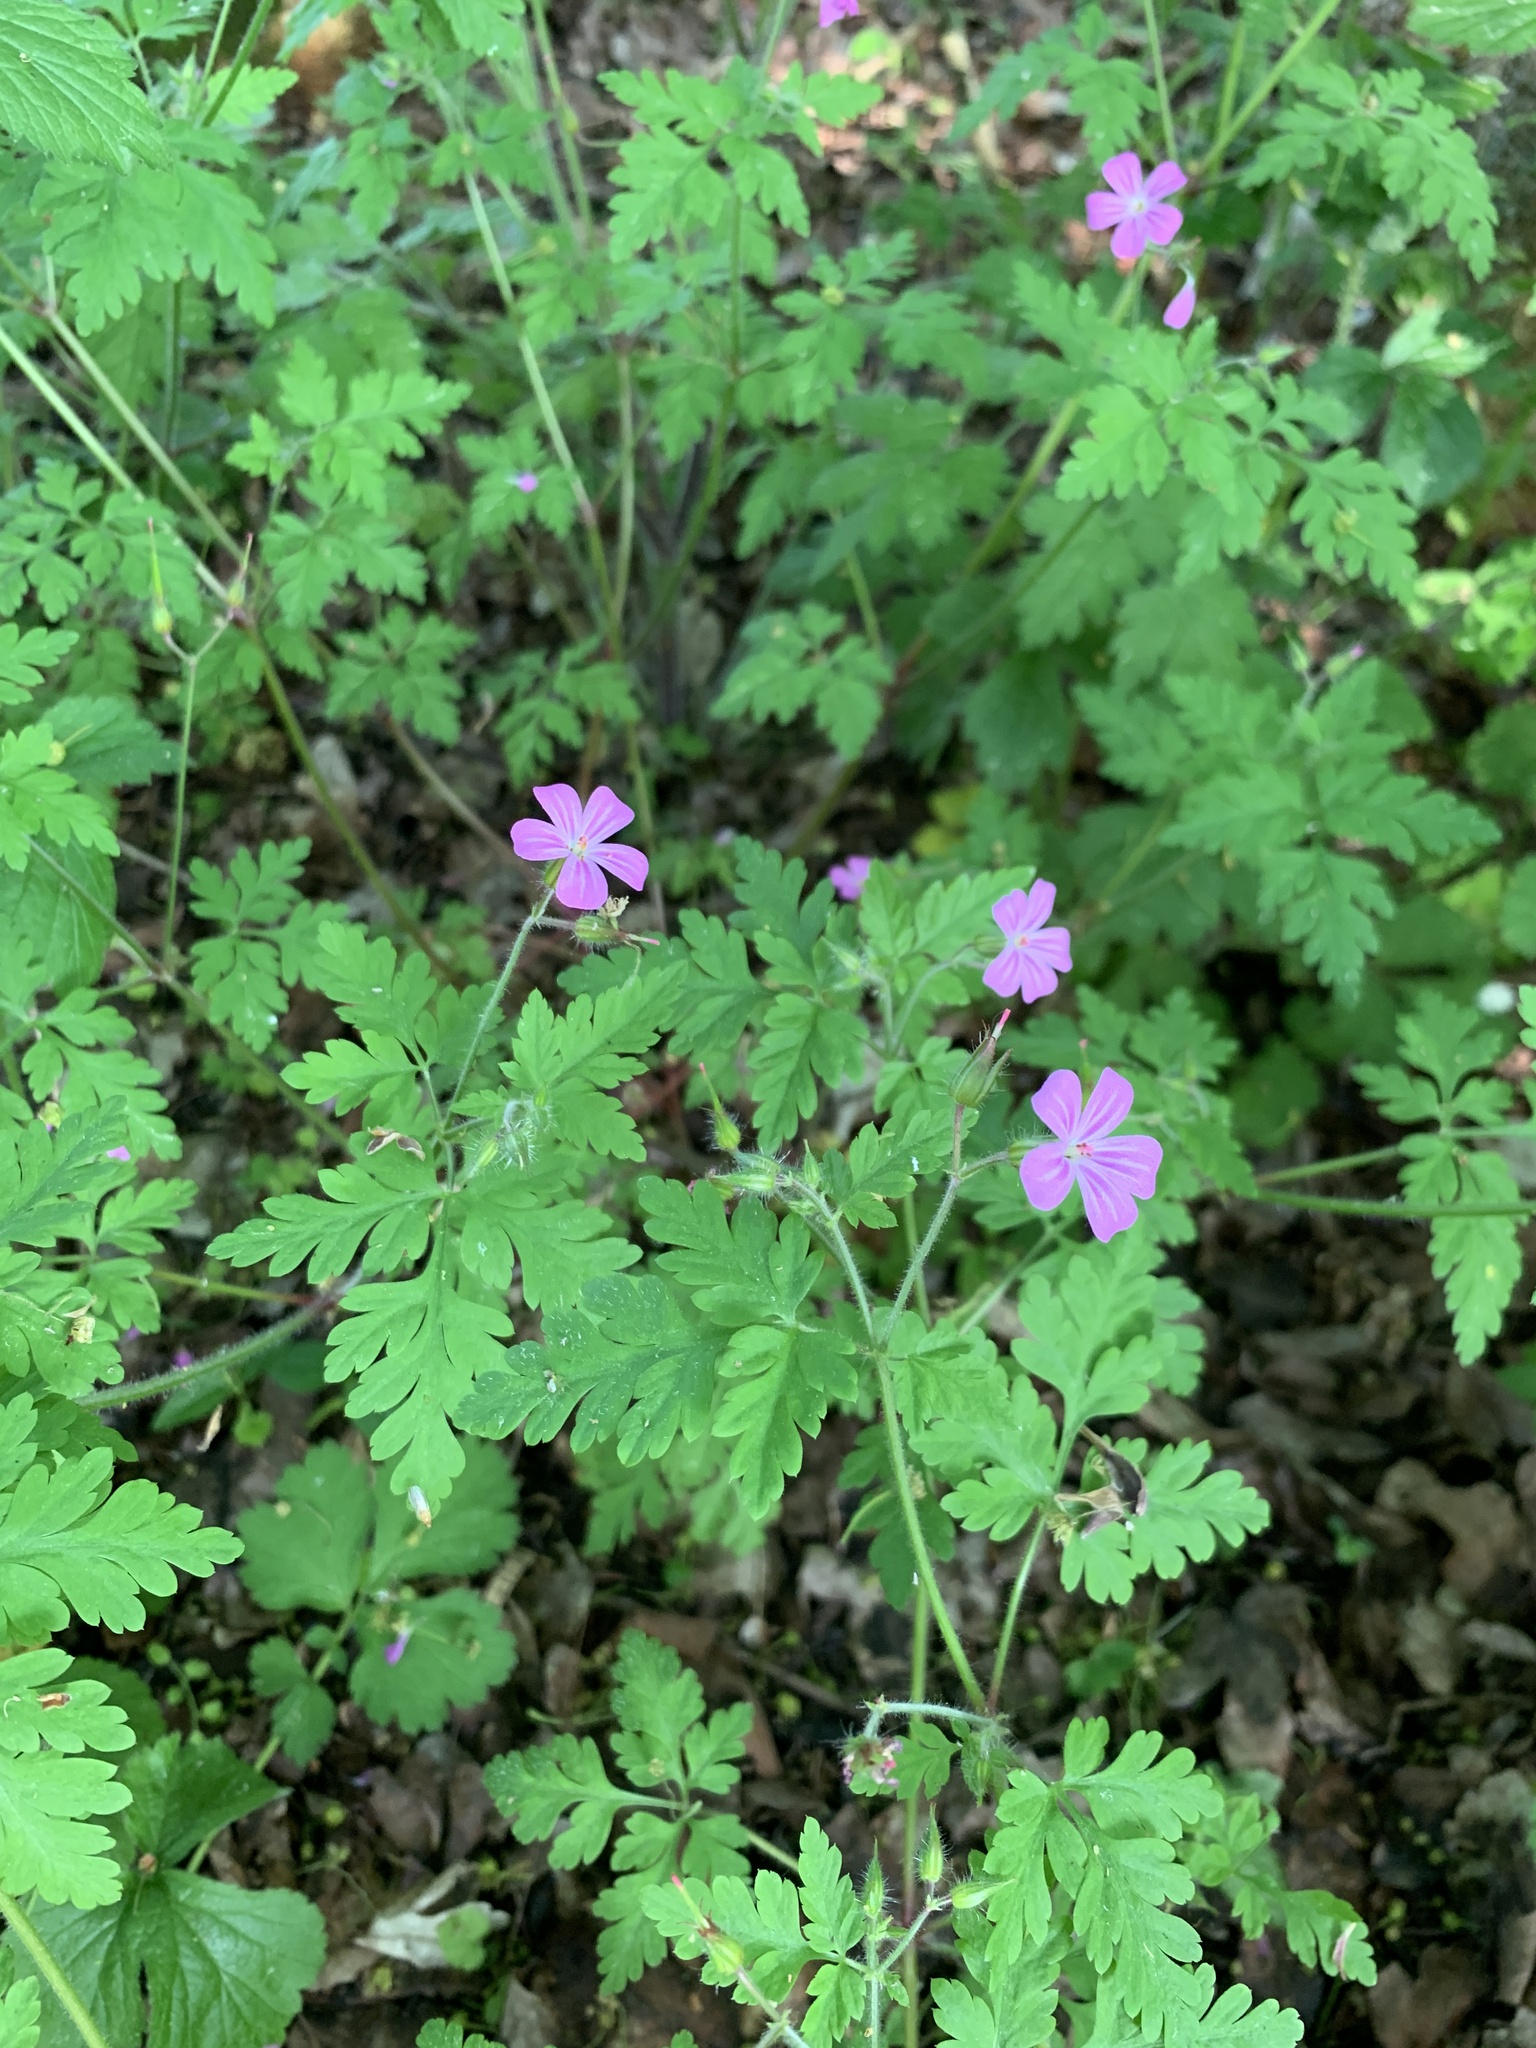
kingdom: Plantae
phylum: Tracheophyta
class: Magnoliopsida
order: Geraniales
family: Geraniaceae
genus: Geranium
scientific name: Geranium robertianum
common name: Herb-robert
